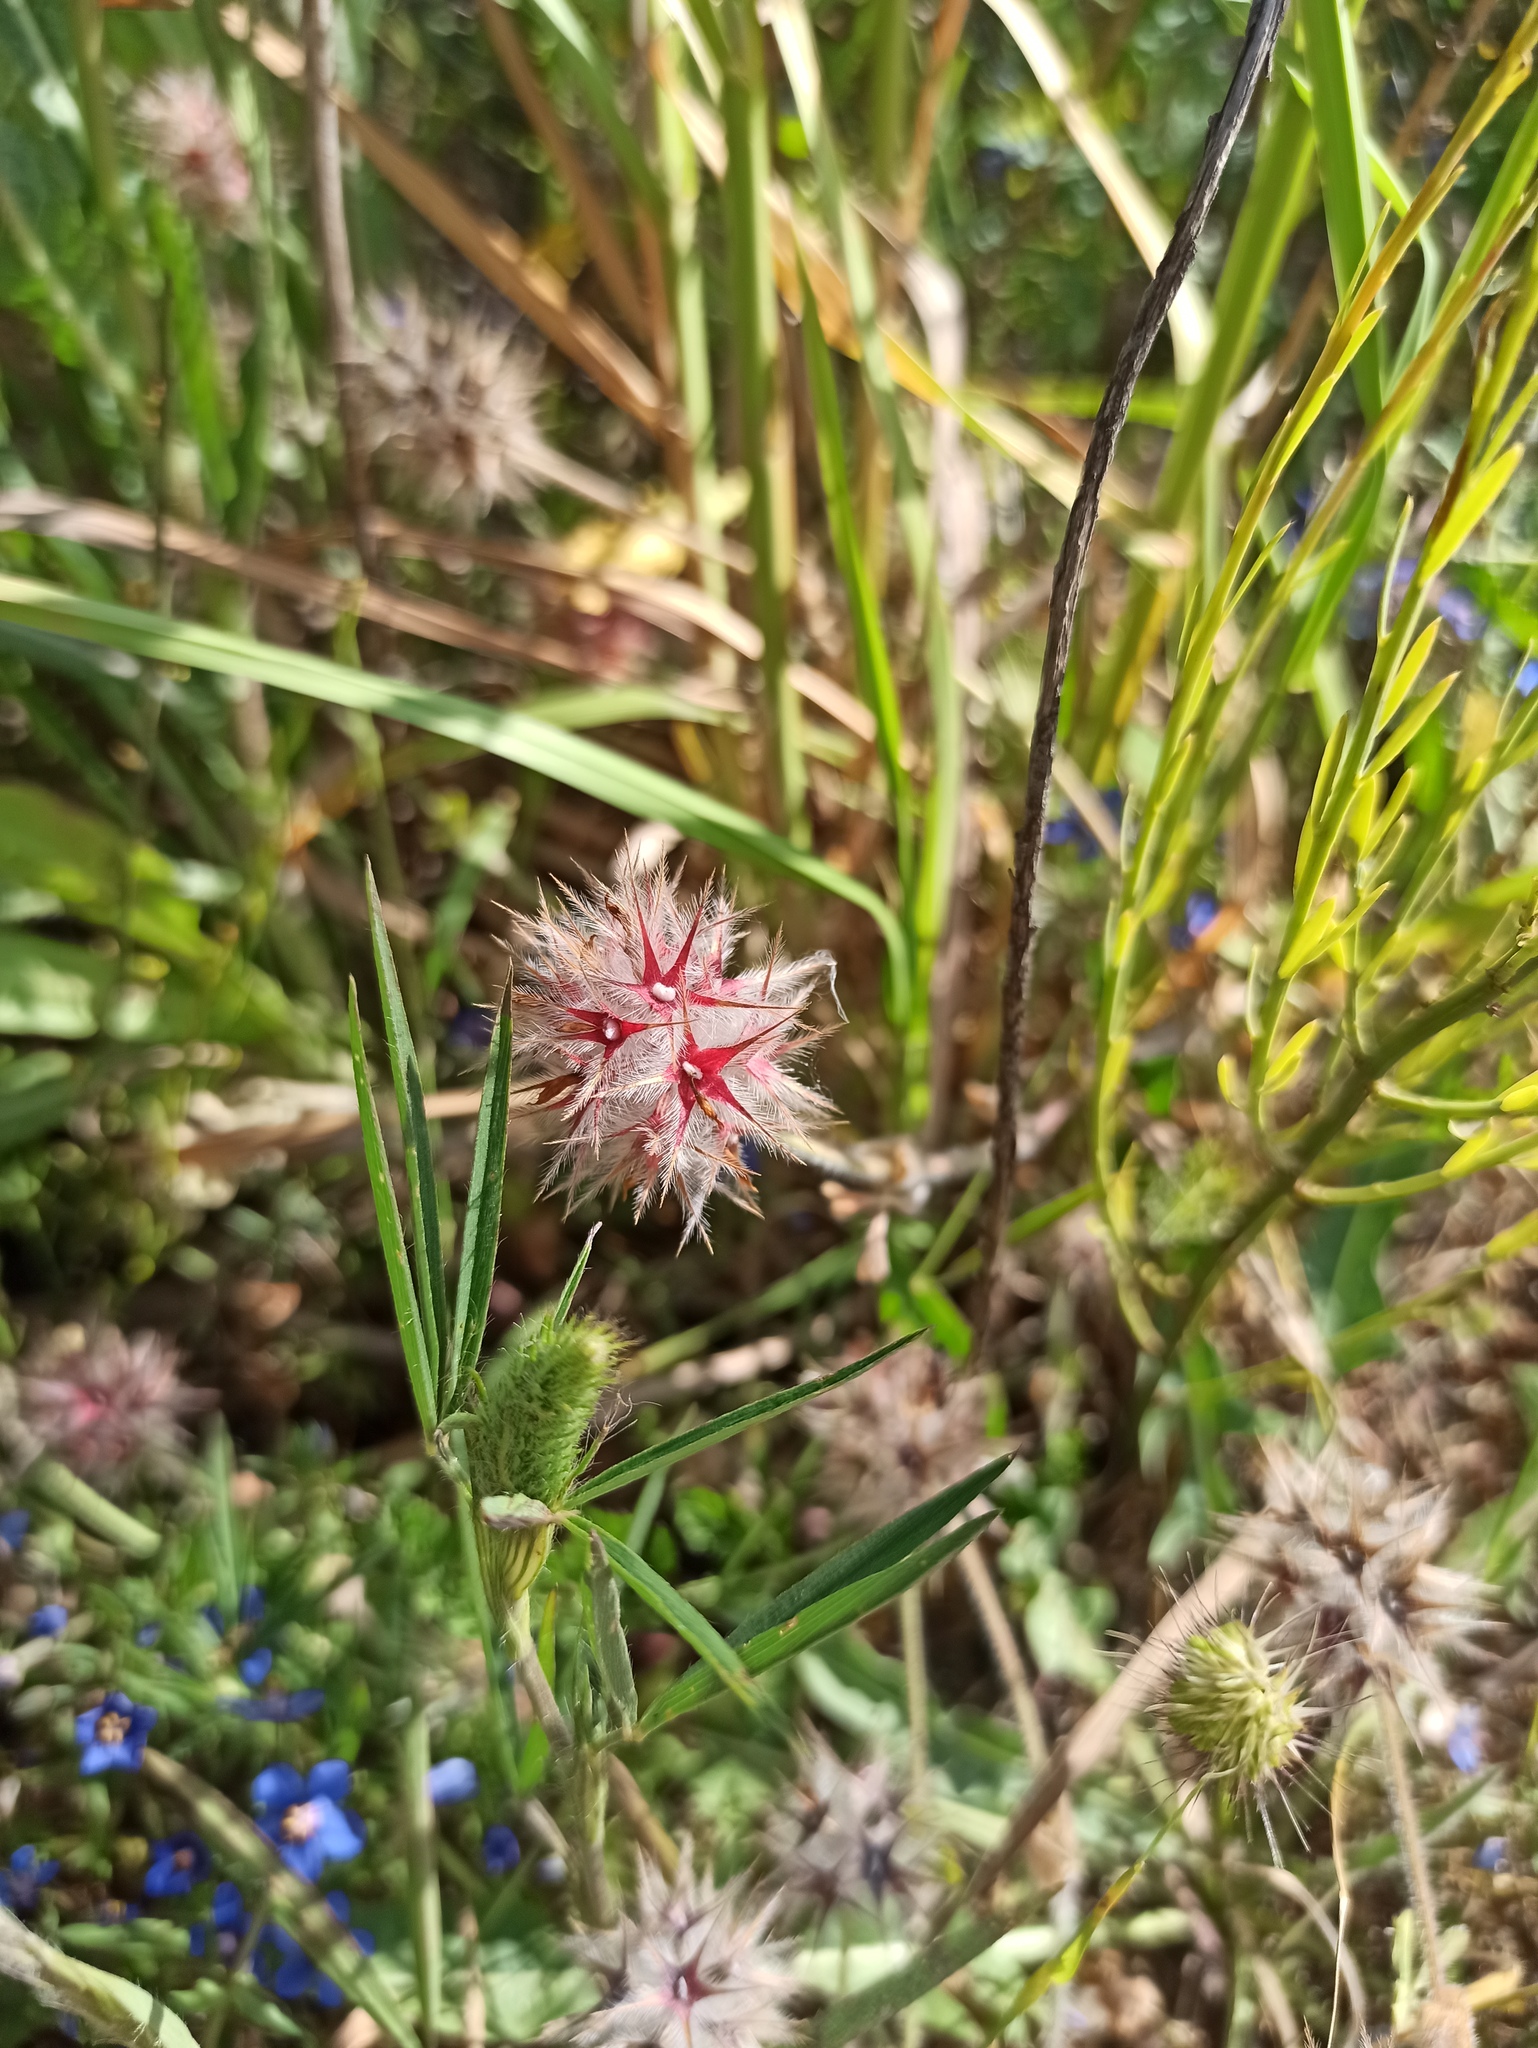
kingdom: Plantae
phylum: Tracheophyta
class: Magnoliopsida
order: Fabales
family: Fabaceae
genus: Trifolium
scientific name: Trifolium stellatum
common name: Starry clover
